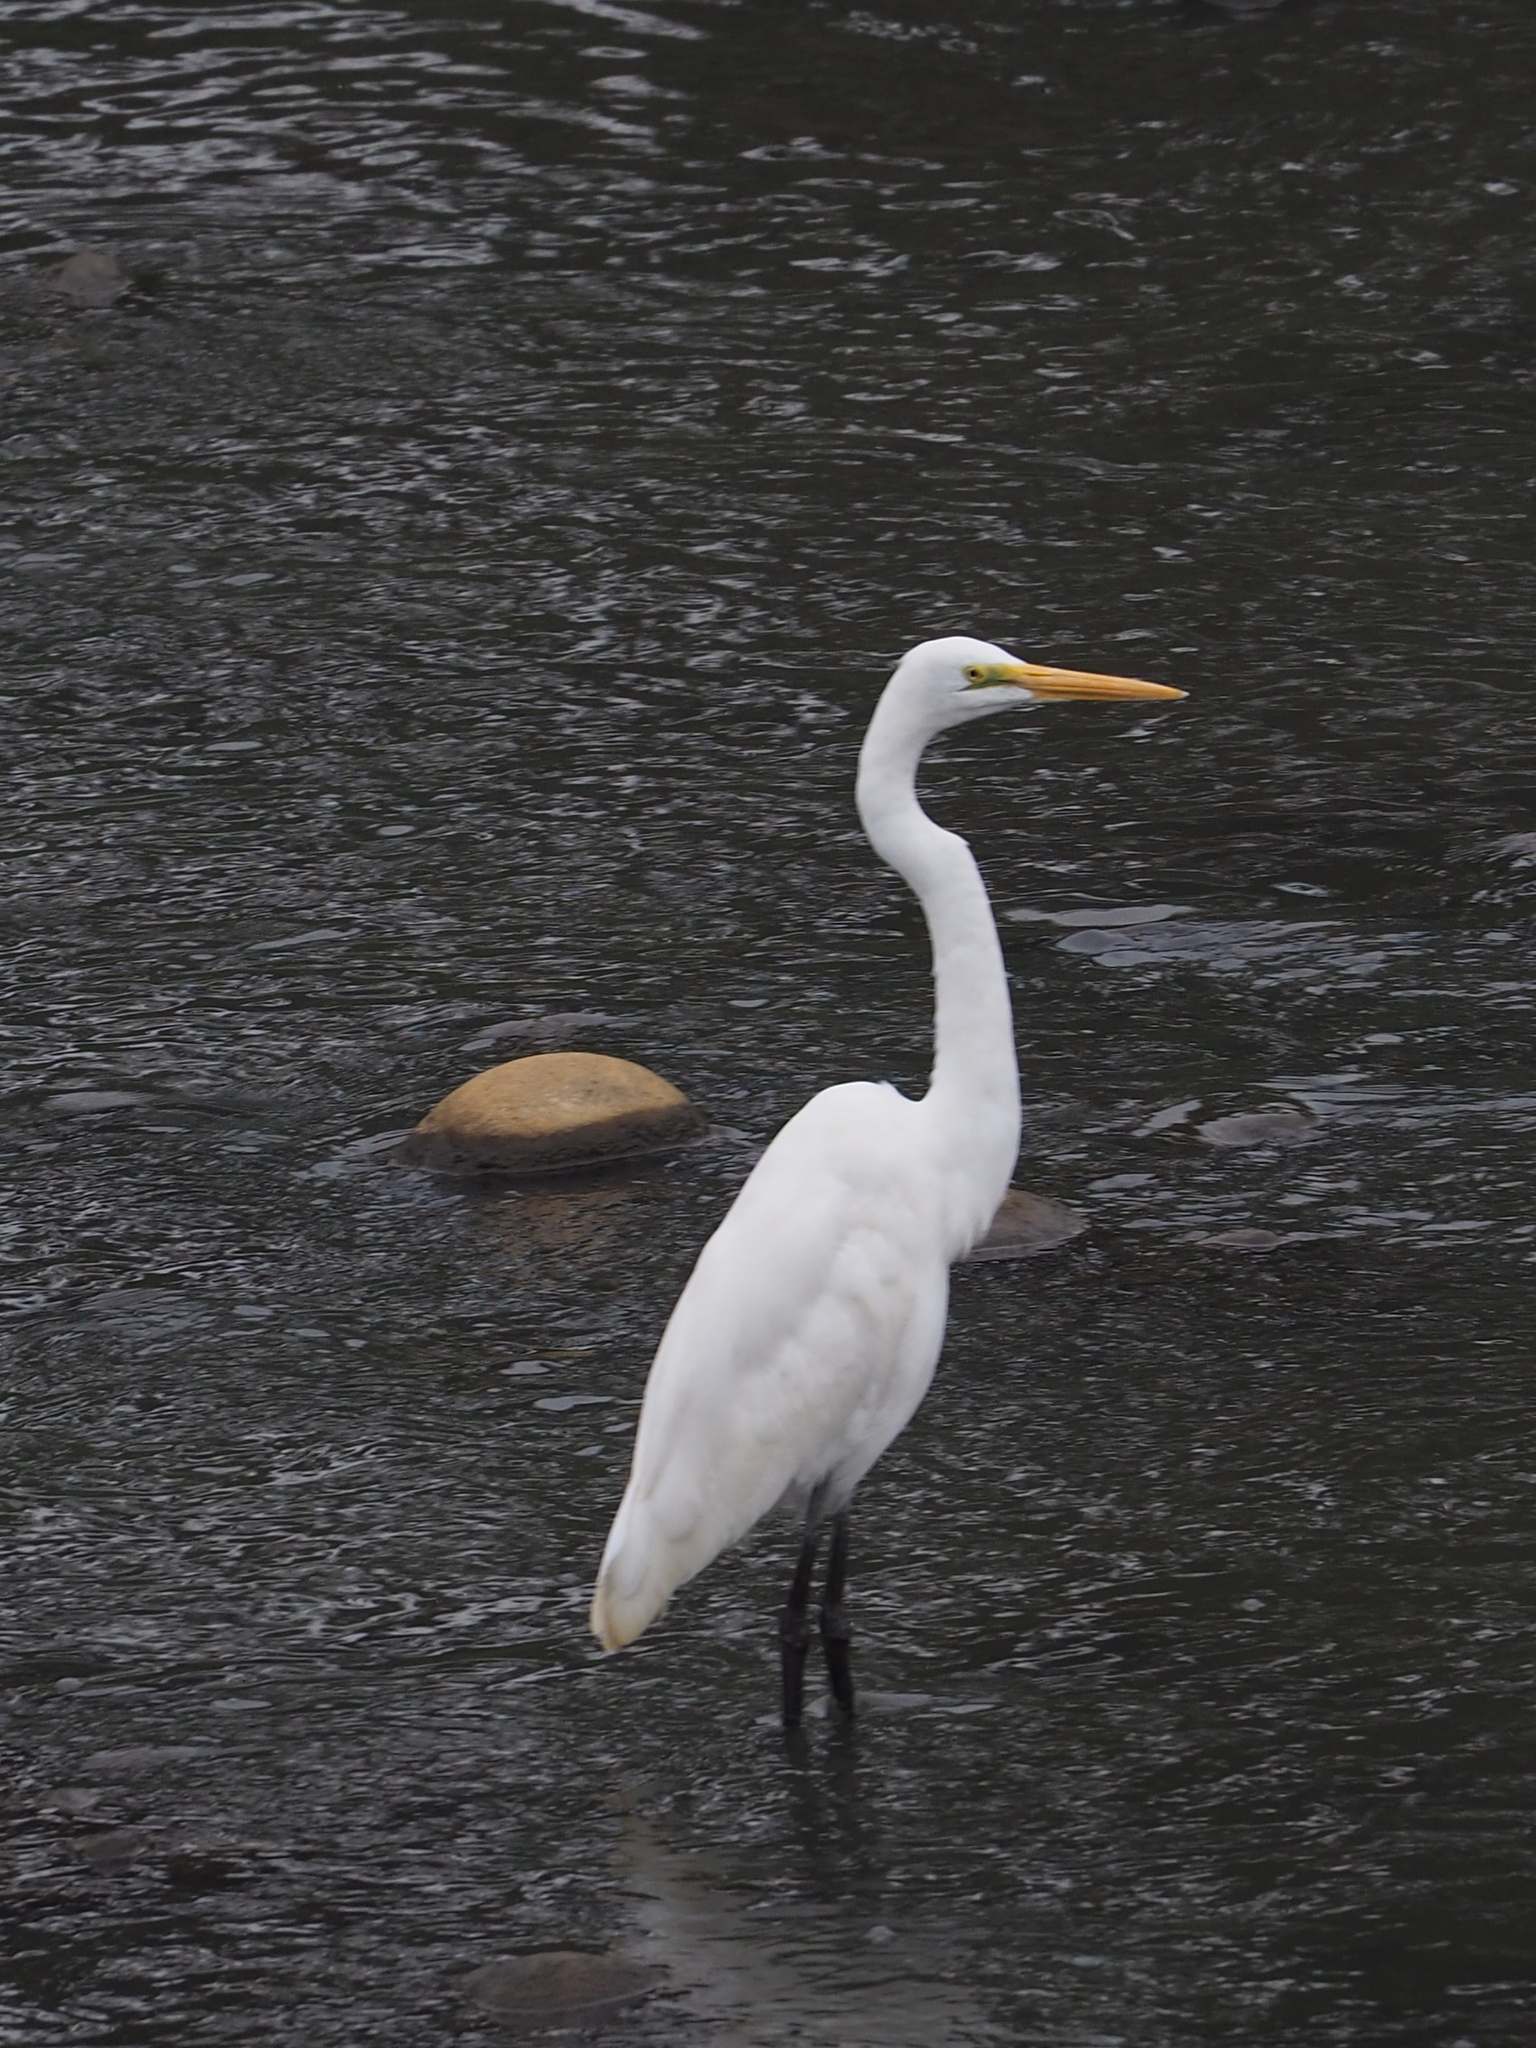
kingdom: Animalia
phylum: Chordata
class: Aves
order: Pelecaniformes
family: Ardeidae
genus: Ardea
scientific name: Ardea alba
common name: Great egret
